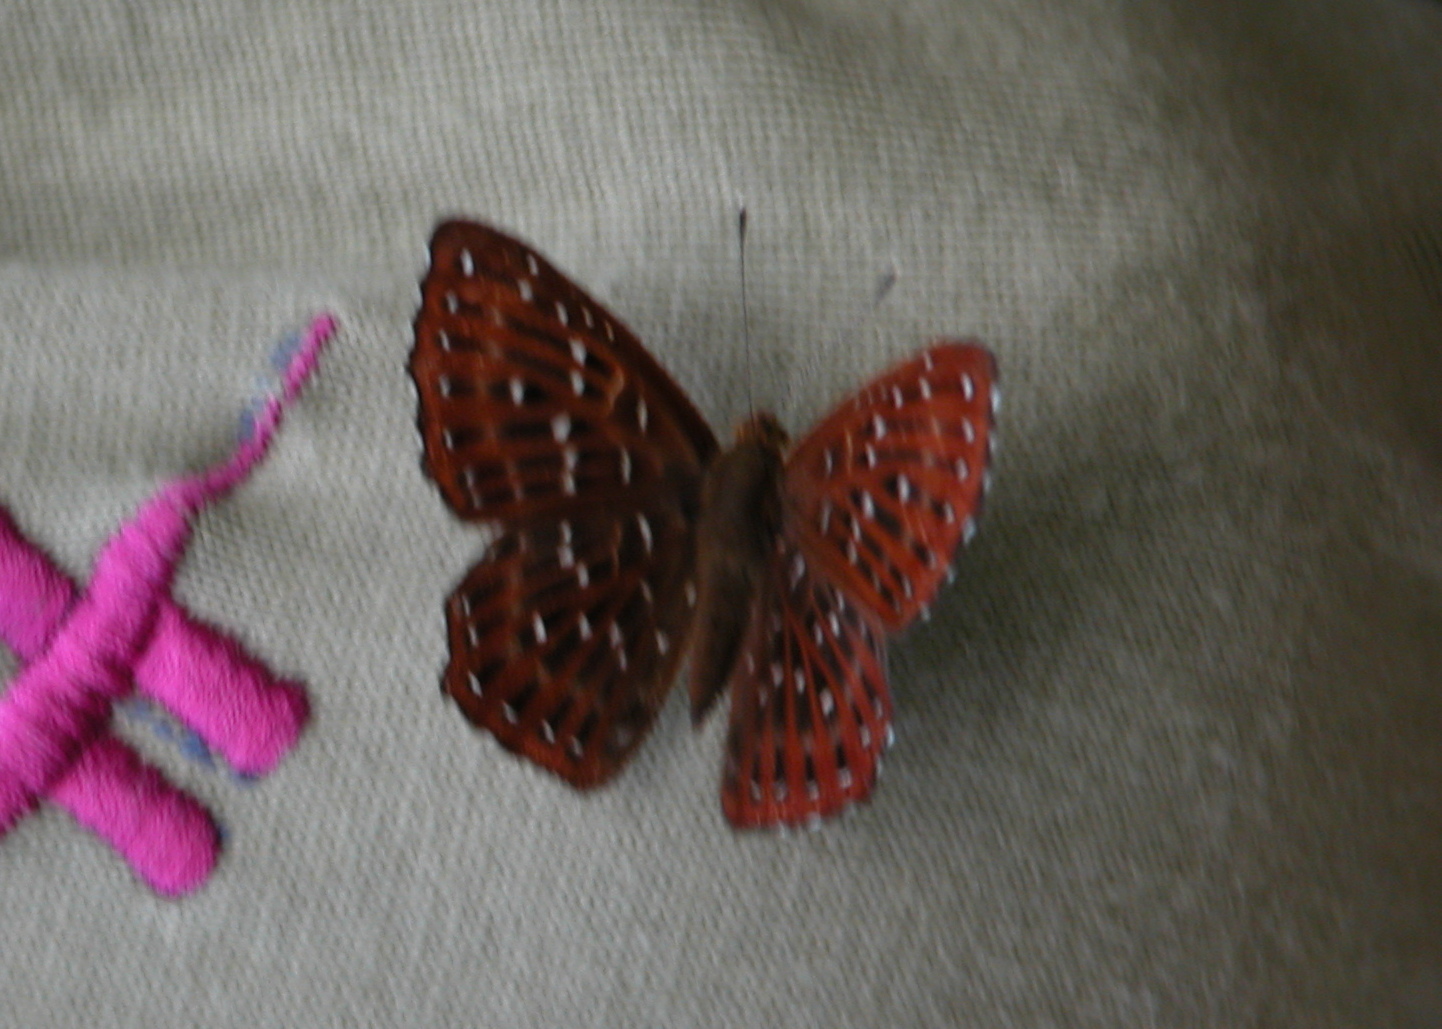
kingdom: Animalia
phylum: Arthropoda
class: Insecta
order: Lepidoptera
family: Riodinidae
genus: Zemeros
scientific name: Zemeros flegyas
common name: Punchinello
